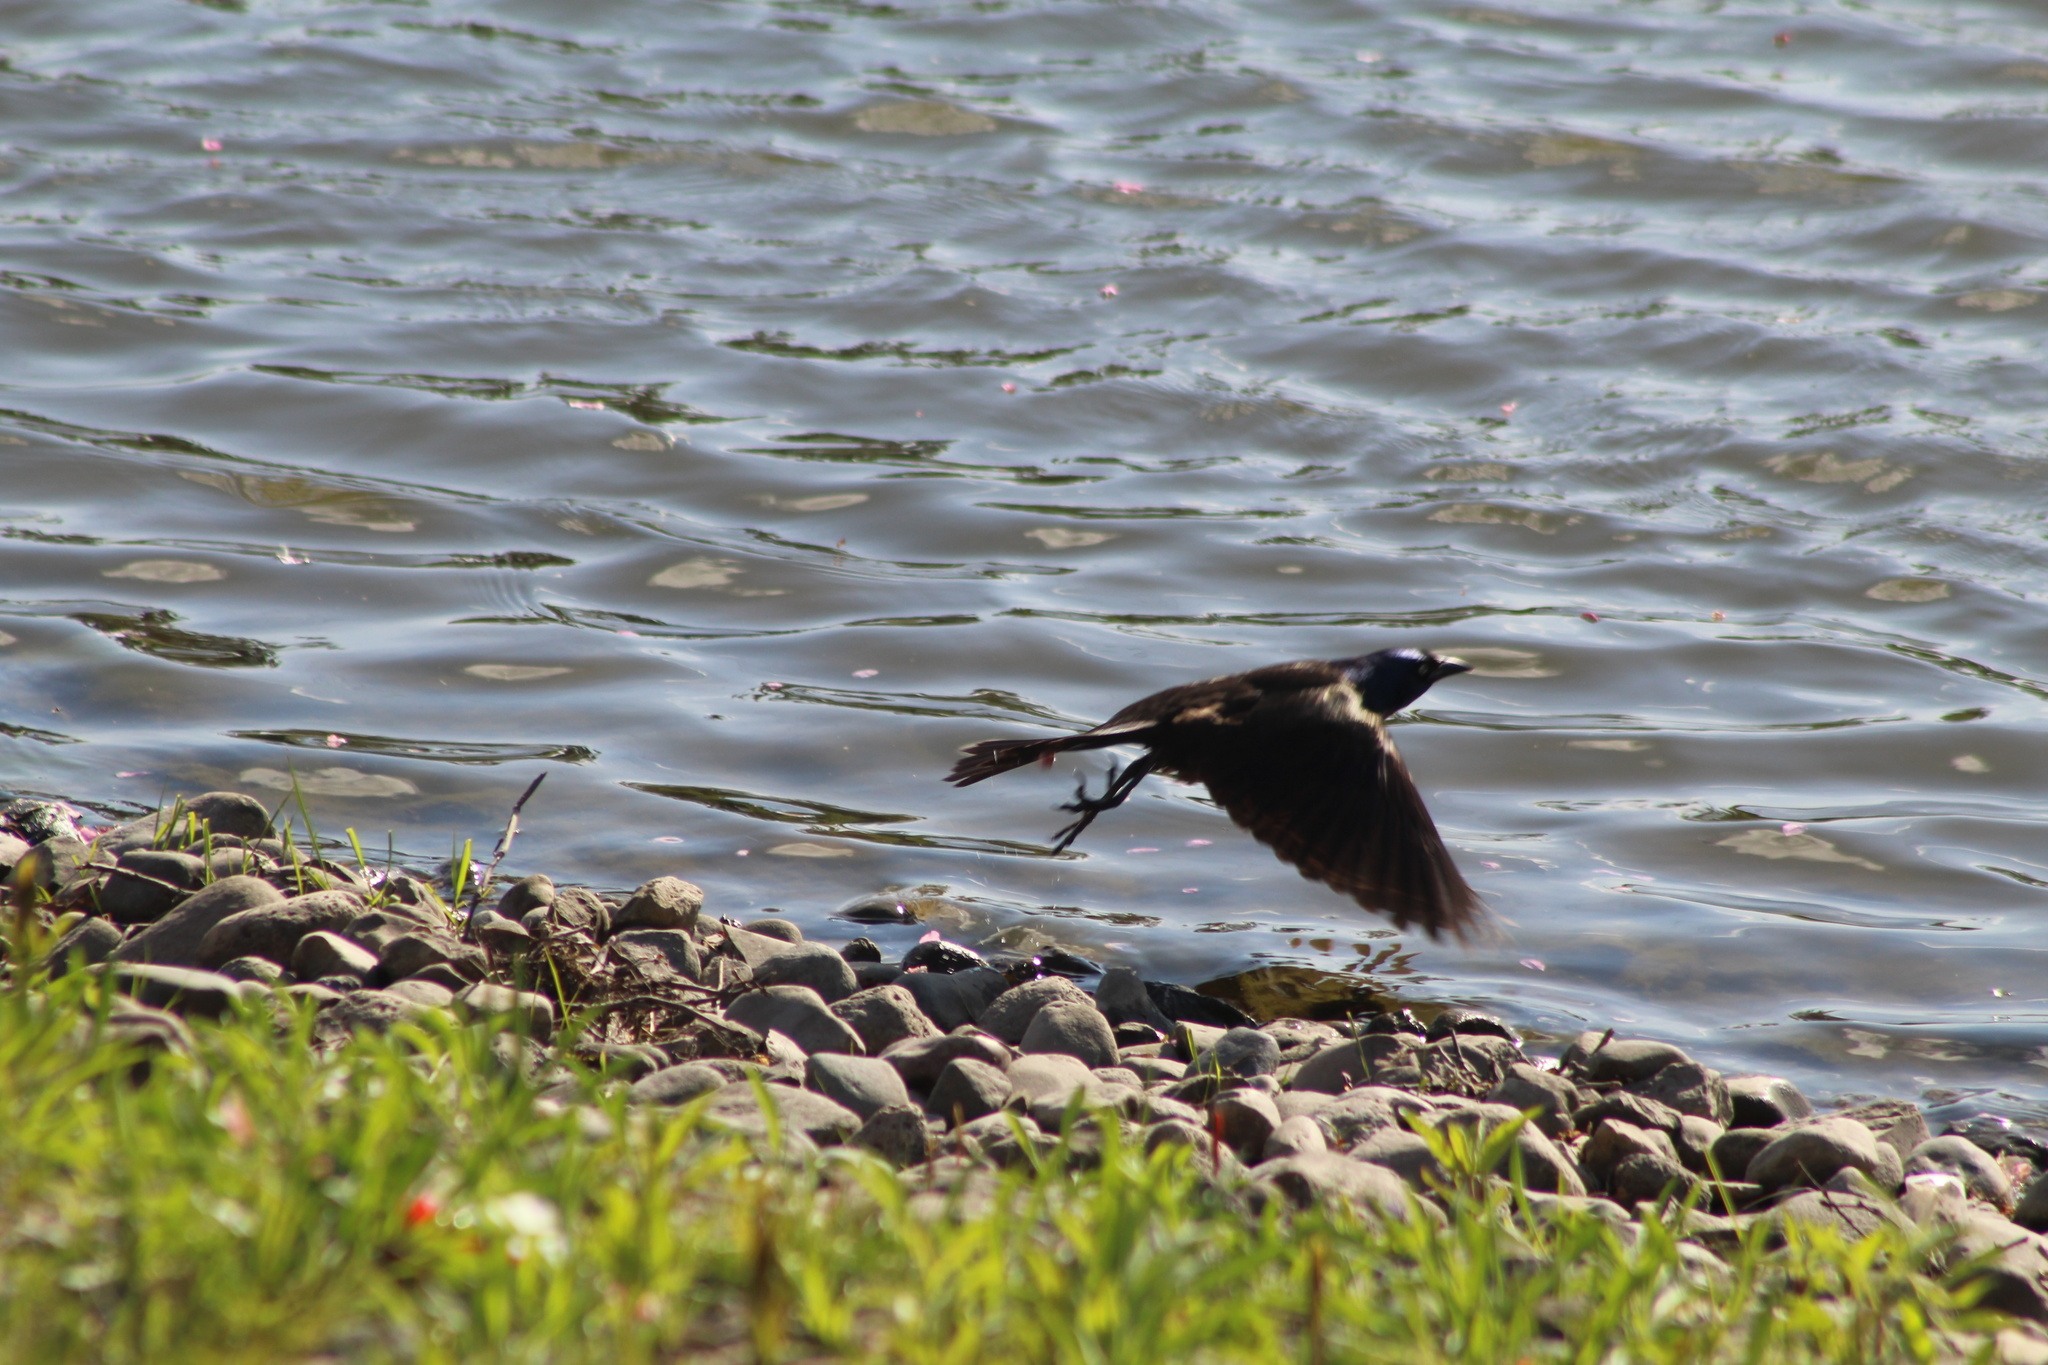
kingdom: Animalia
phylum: Chordata
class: Aves
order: Passeriformes
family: Icteridae
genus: Quiscalus
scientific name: Quiscalus quiscula
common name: Common grackle
